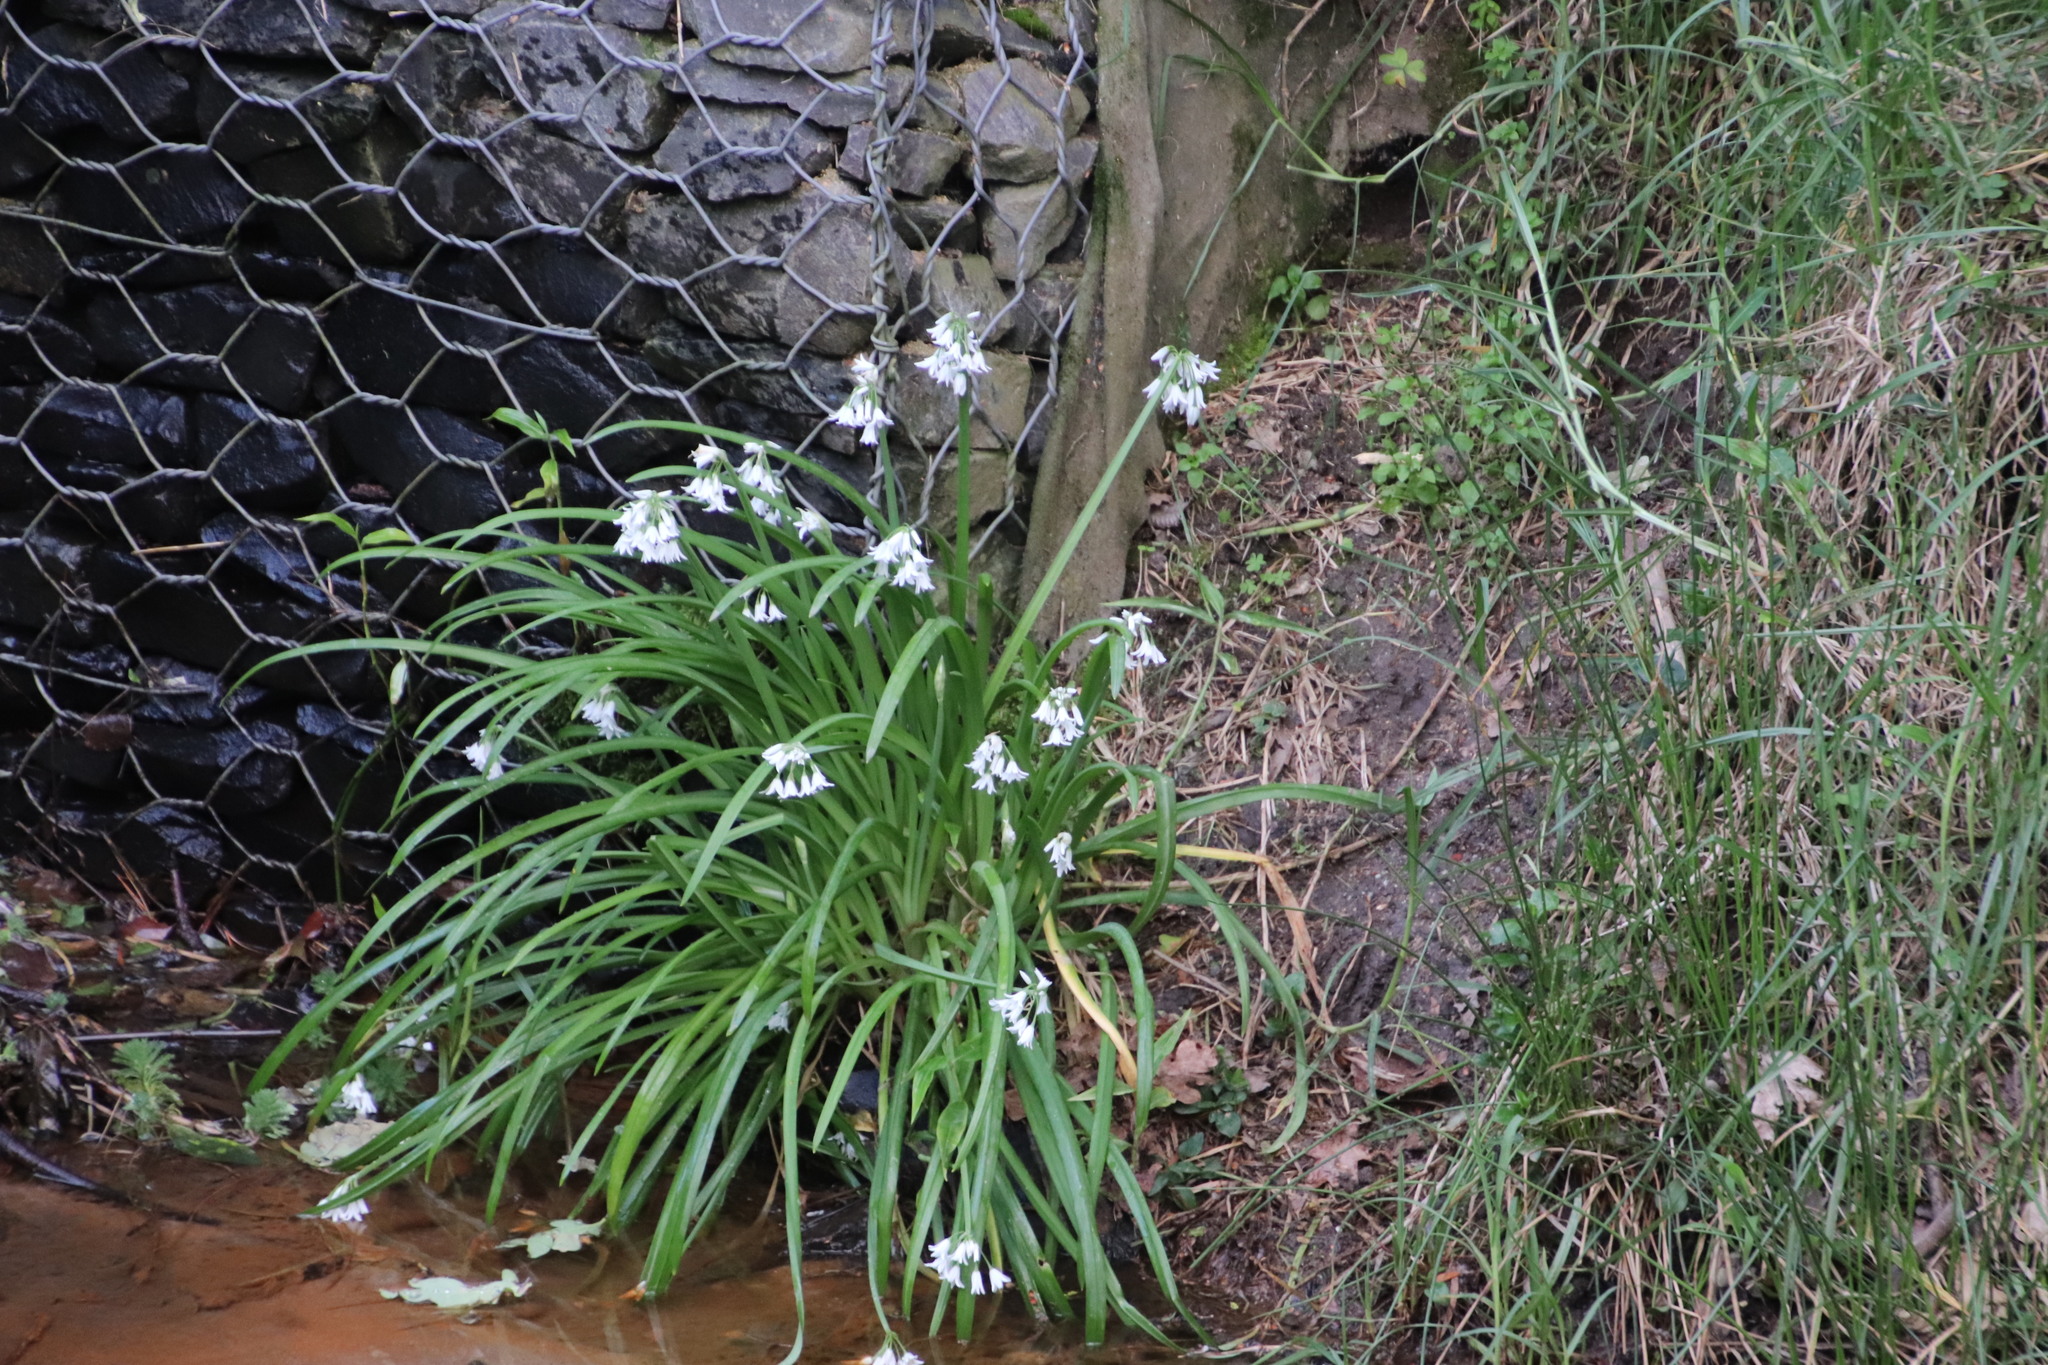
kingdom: Plantae
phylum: Tracheophyta
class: Liliopsida
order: Asparagales
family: Amaryllidaceae
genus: Allium
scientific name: Allium triquetrum
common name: Three-cornered garlic
